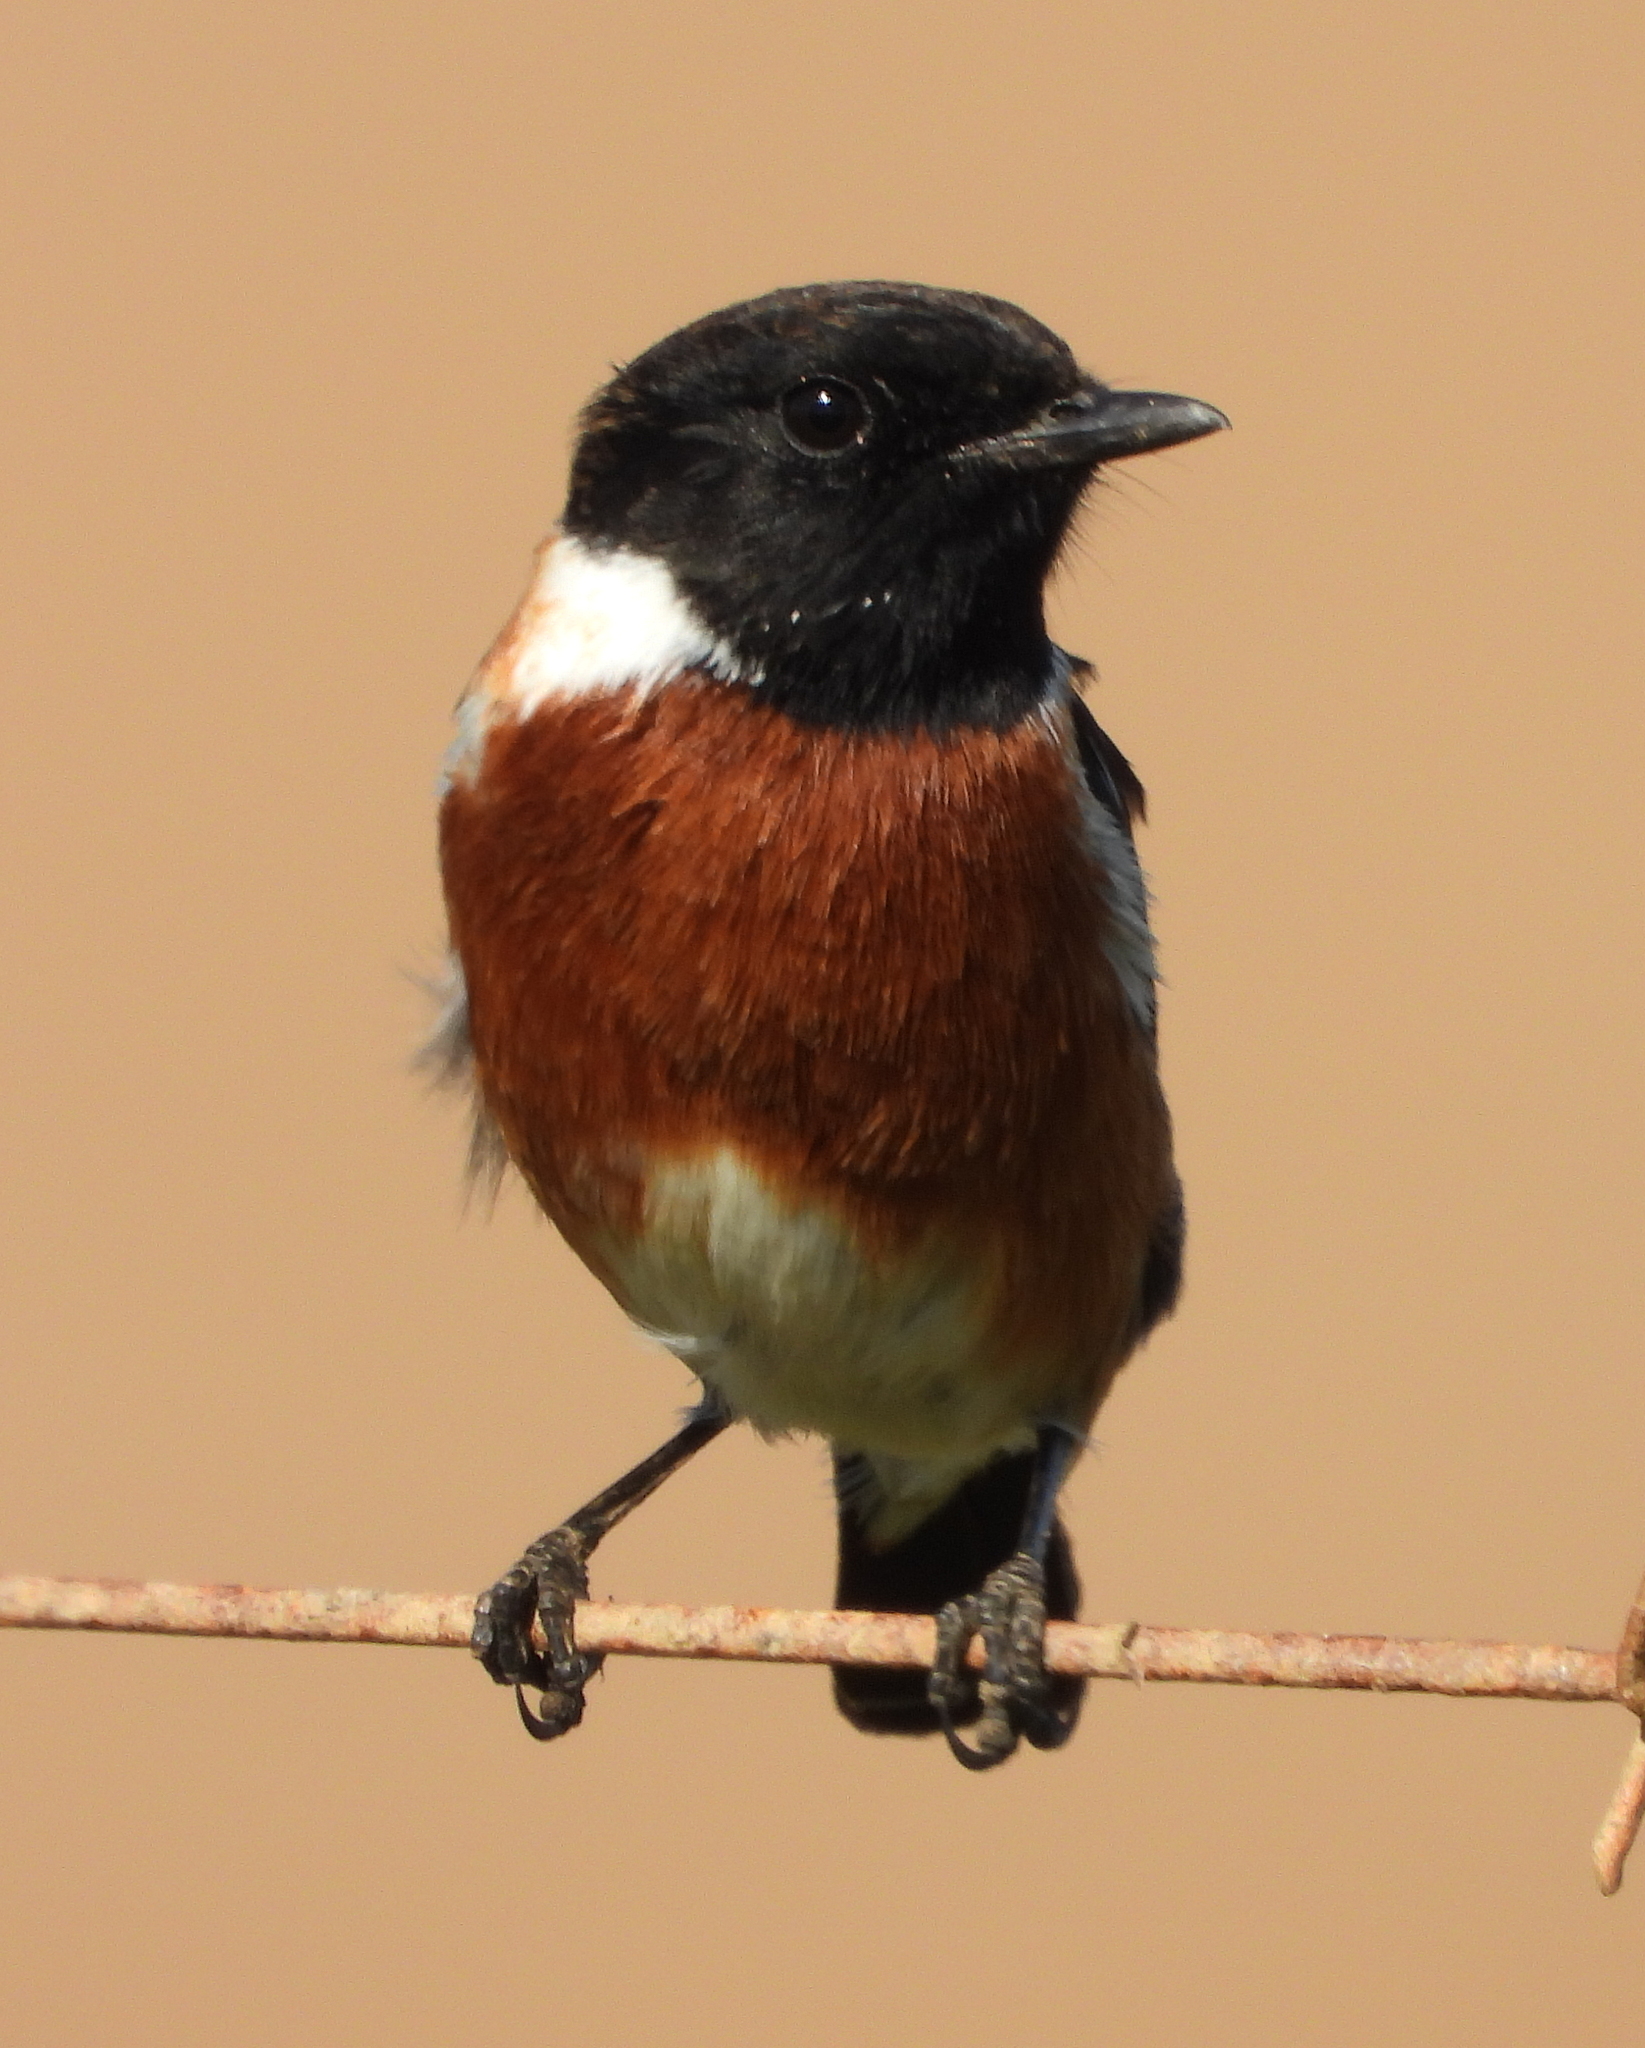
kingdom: Animalia
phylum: Chordata
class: Aves
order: Passeriformes
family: Muscicapidae
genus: Saxicola
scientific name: Saxicola torquatus
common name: African stonechat
